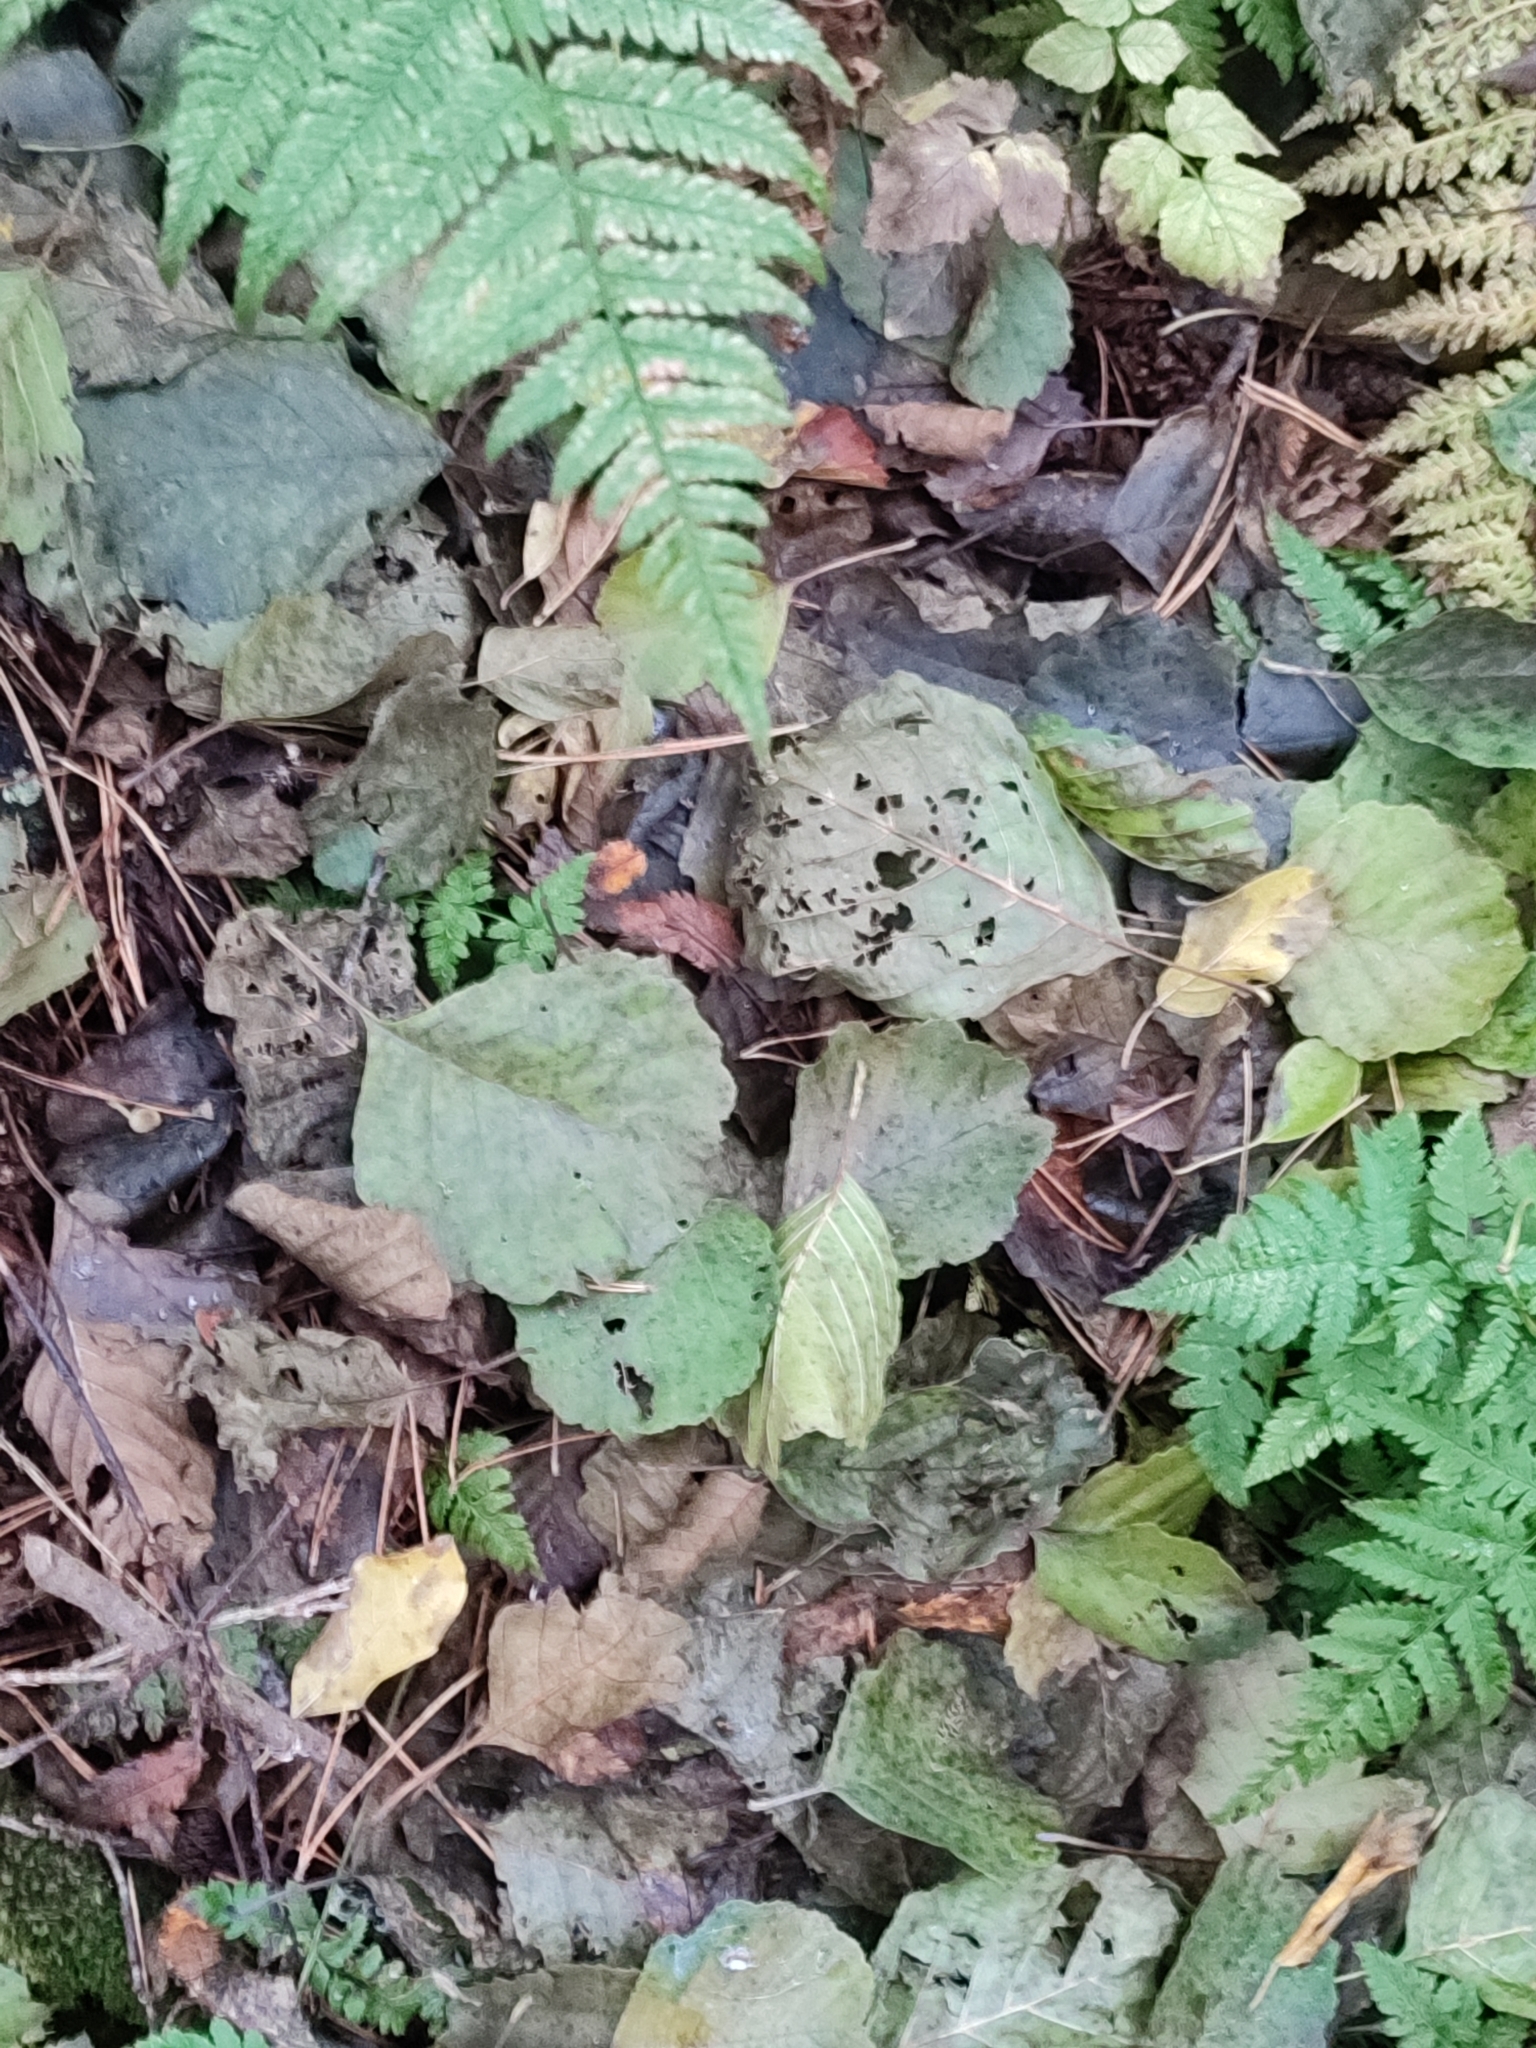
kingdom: Plantae
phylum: Tracheophyta
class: Magnoliopsida
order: Fagales
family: Betulaceae
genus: Alnus
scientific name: Alnus glutinosa
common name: Black alder
